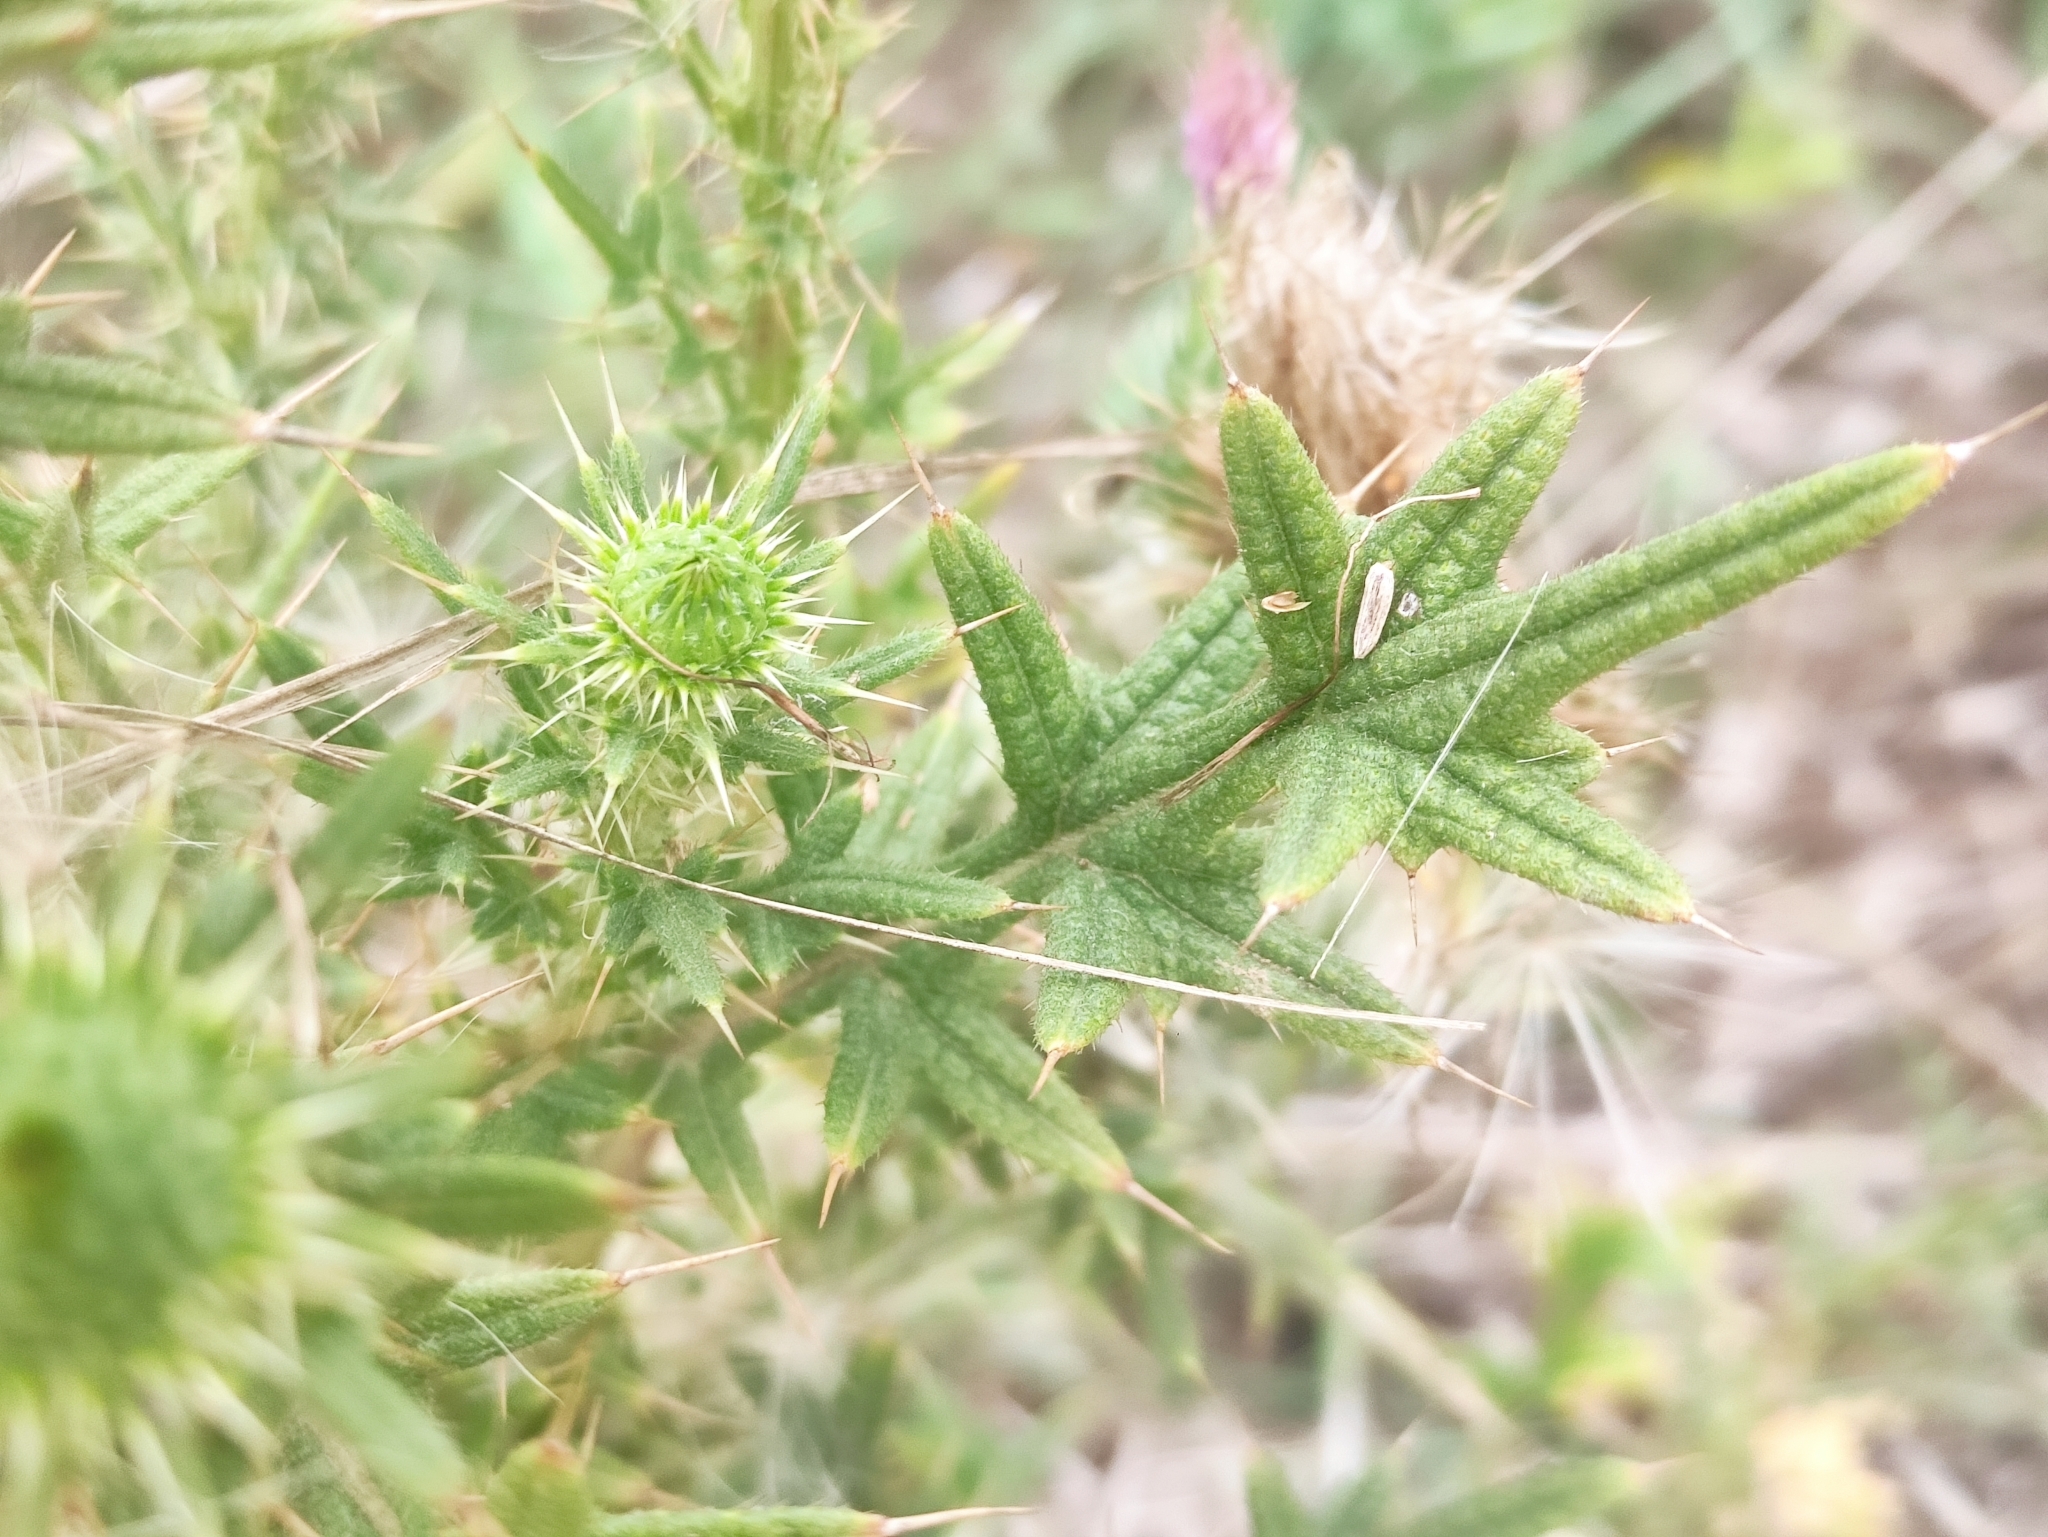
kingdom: Plantae
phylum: Tracheophyta
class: Magnoliopsida
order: Asterales
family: Asteraceae
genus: Cirsium
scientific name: Cirsium vulgare
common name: Bull thistle
